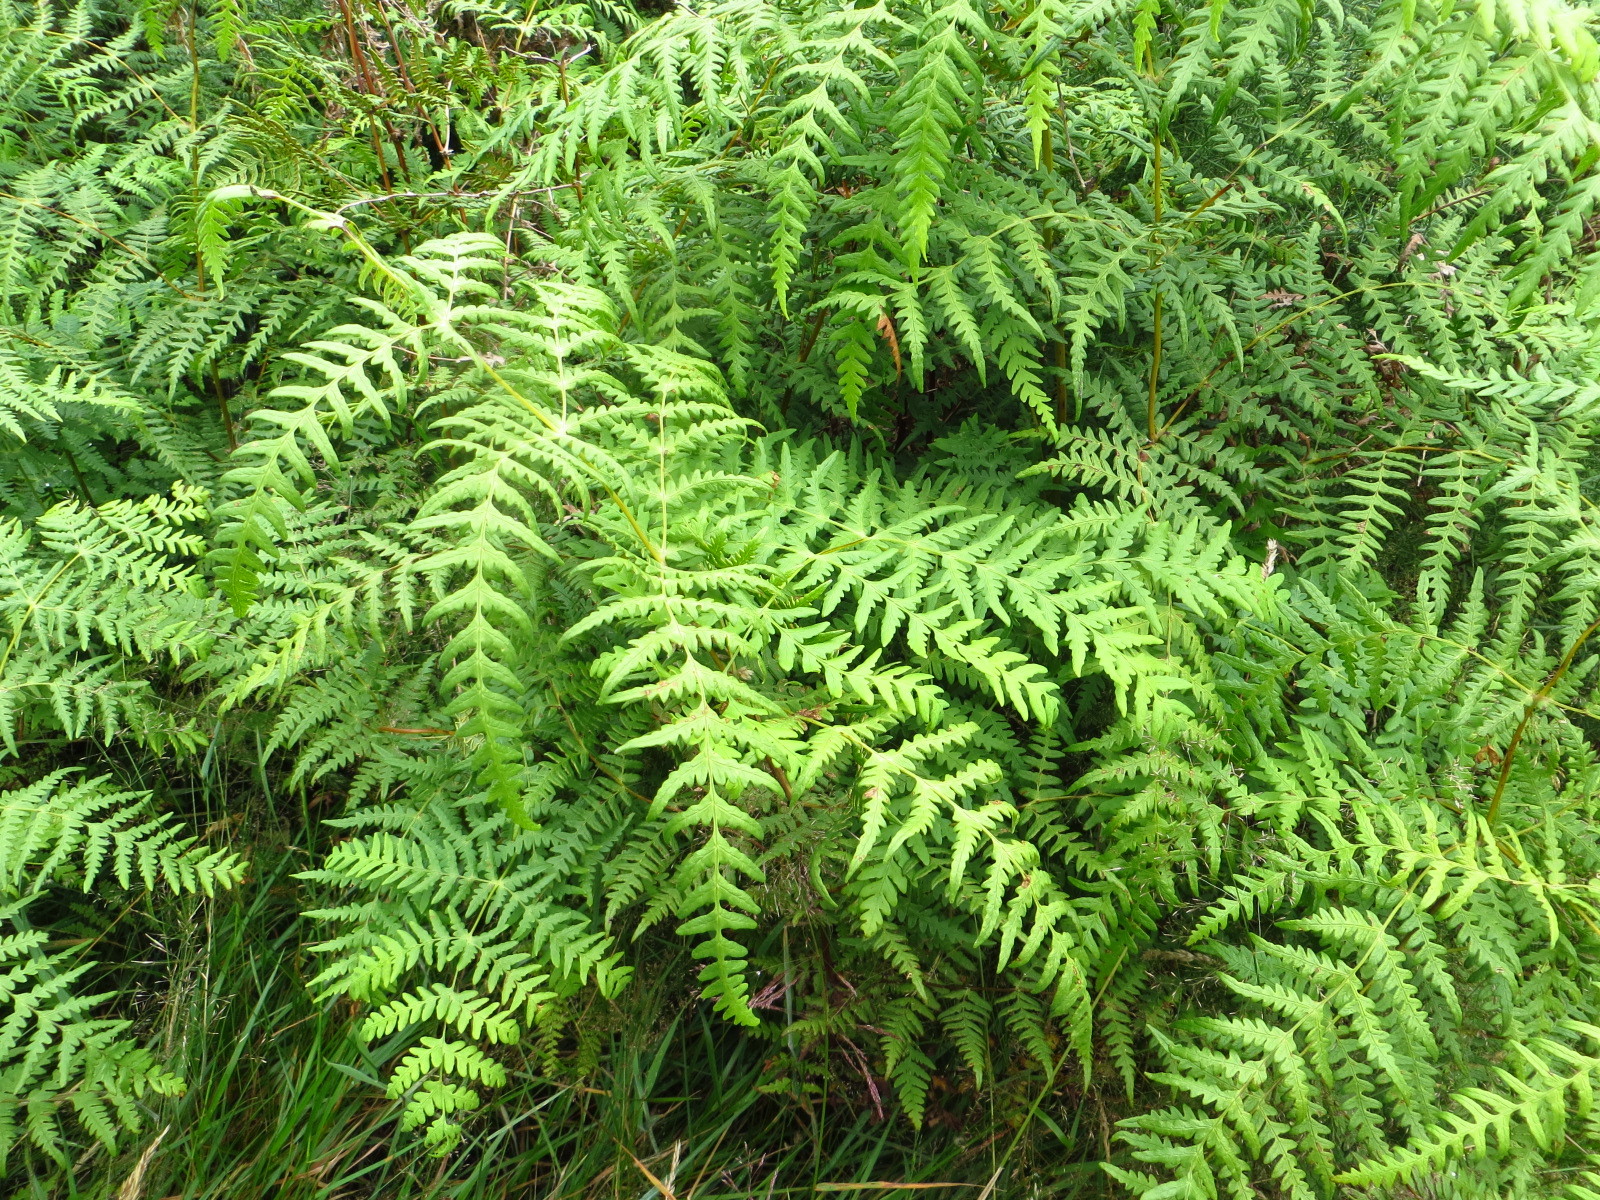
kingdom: Plantae
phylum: Tracheophyta
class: Polypodiopsida
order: Polypodiales
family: Dennstaedtiaceae
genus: Histiopteris
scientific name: Histiopteris incisa
